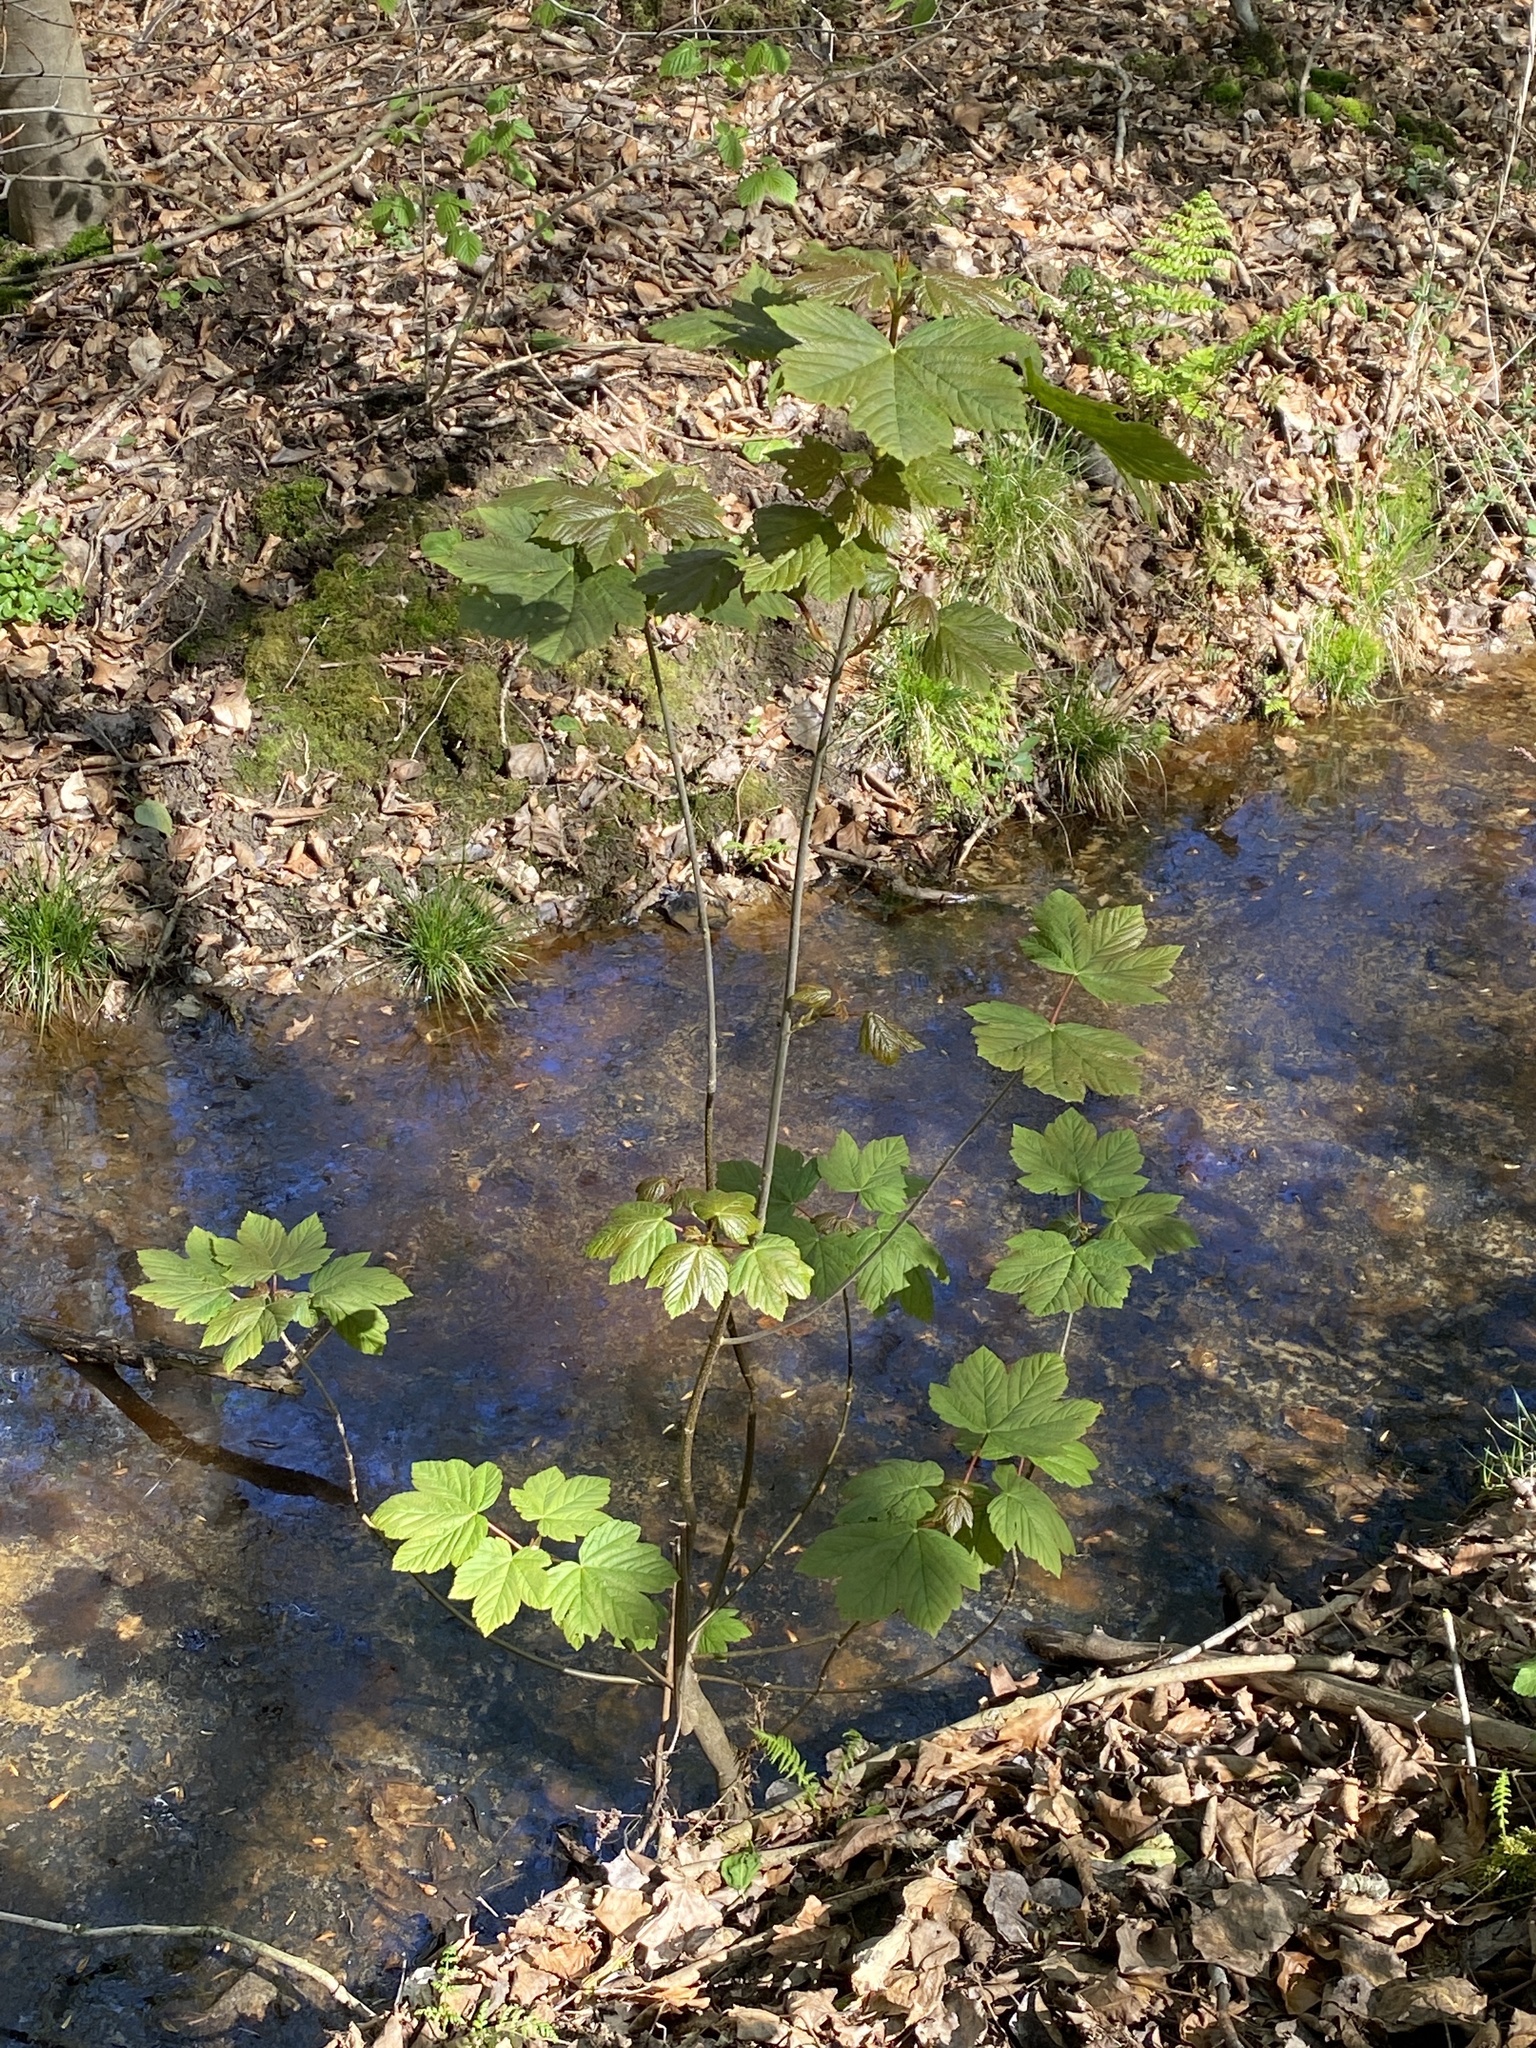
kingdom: Plantae
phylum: Tracheophyta
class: Magnoliopsida
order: Sapindales
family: Sapindaceae
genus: Acer
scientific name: Acer pseudoplatanus
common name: Sycamore
